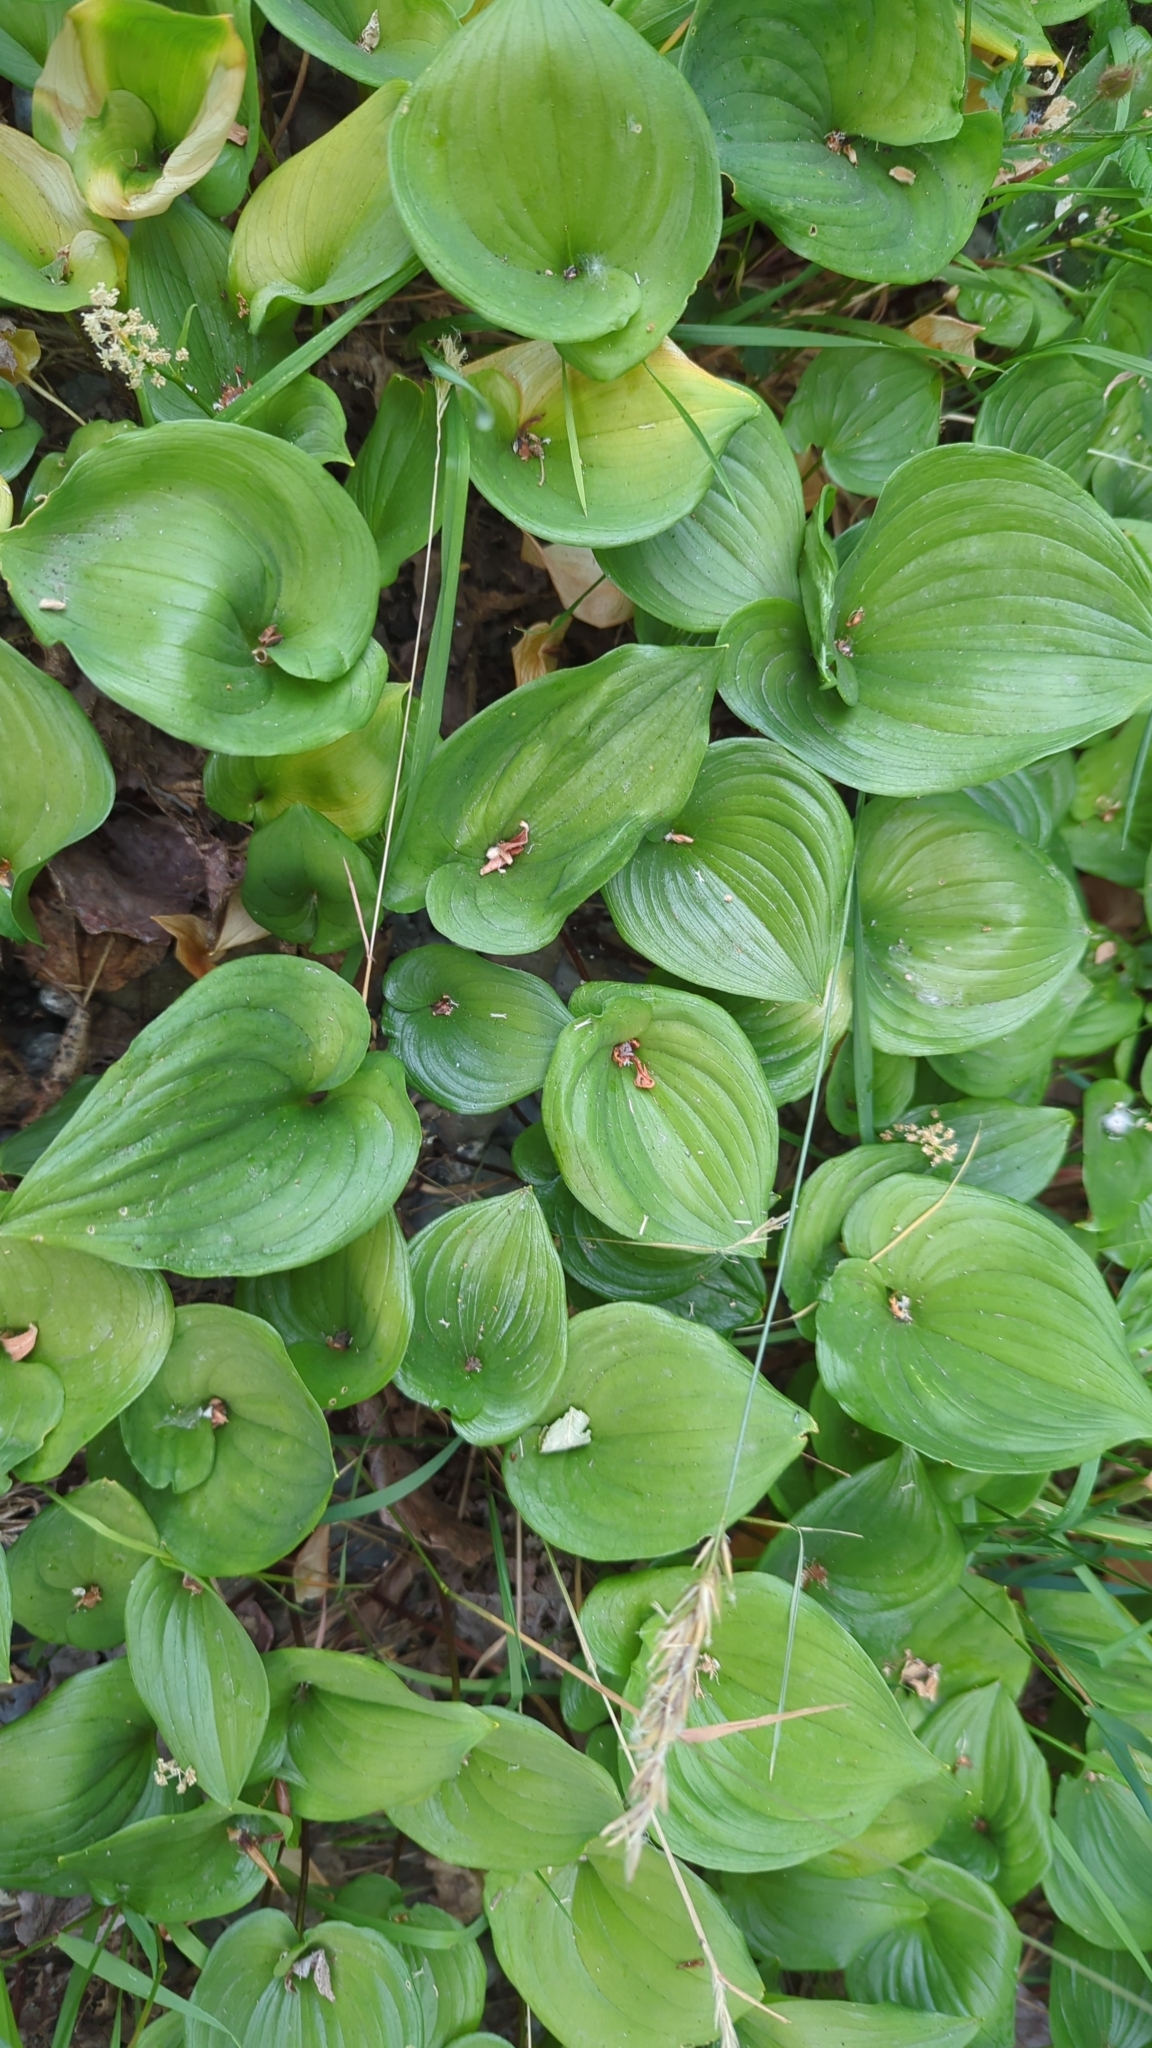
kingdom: Plantae
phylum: Tracheophyta
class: Liliopsida
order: Asparagales
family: Asparagaceae
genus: Maianthemum
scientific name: Maianthemum dilatatum
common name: False lily-of-the-valley
